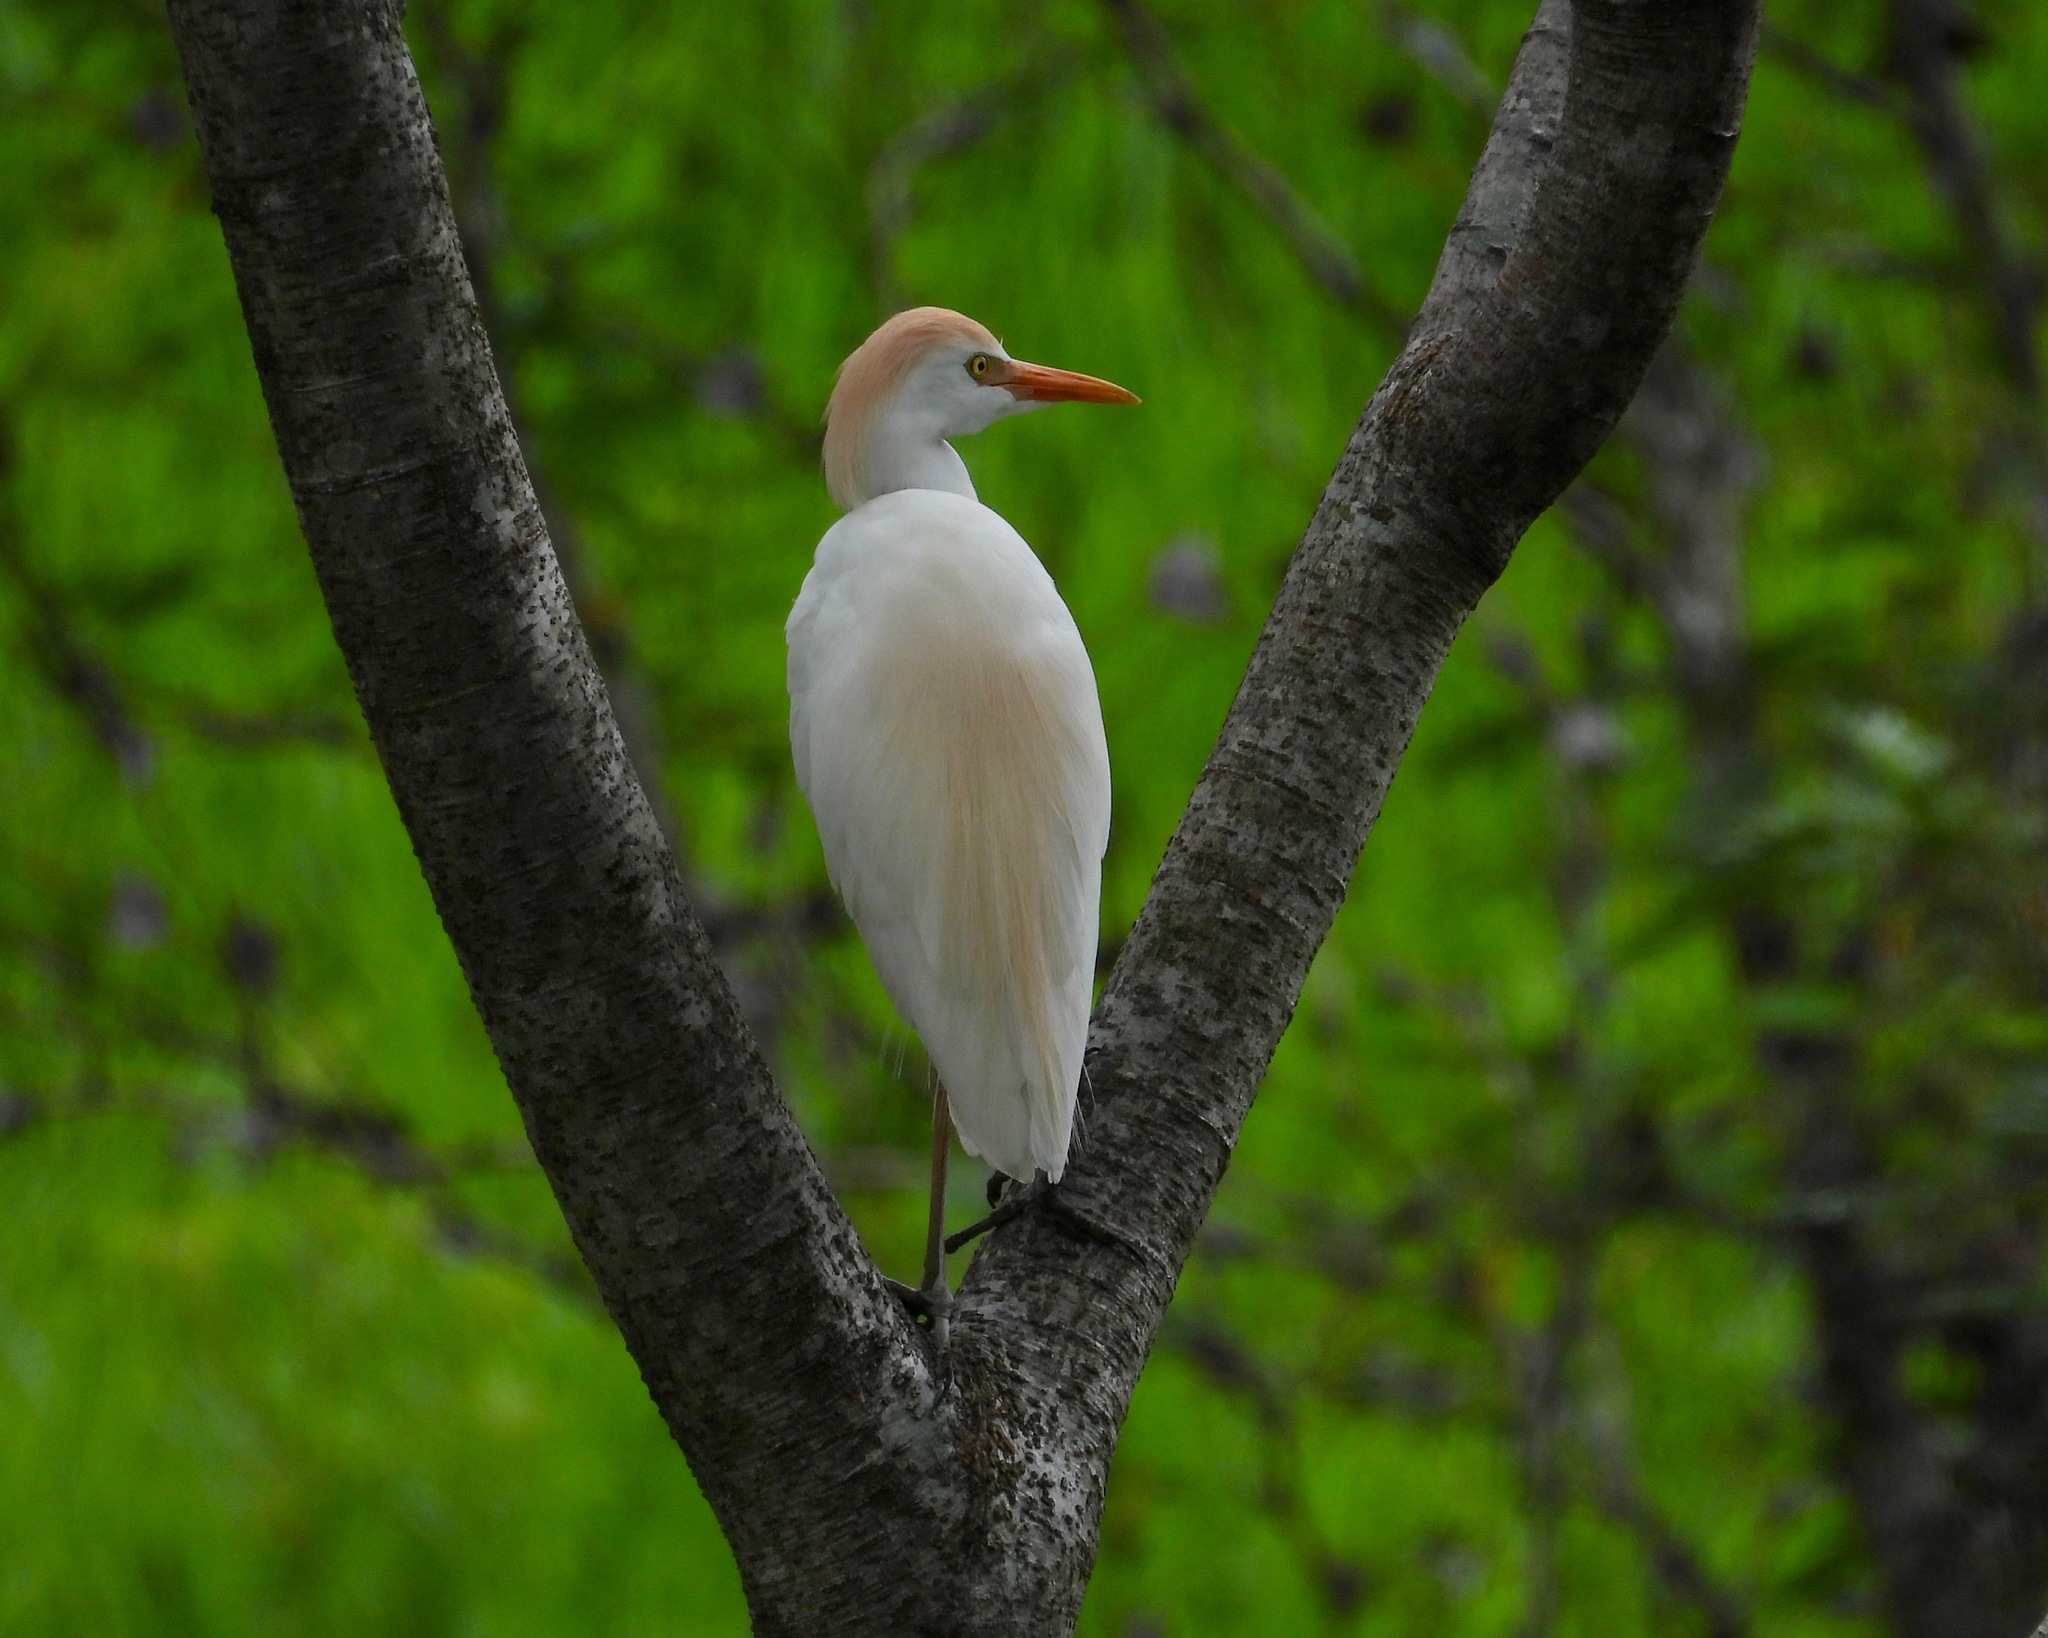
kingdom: Animalia
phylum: Chordata
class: Aves
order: Pelecaniformes
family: Ardeidae
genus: Bubulcus
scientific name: Bubulcus ibis
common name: Cattle egret
